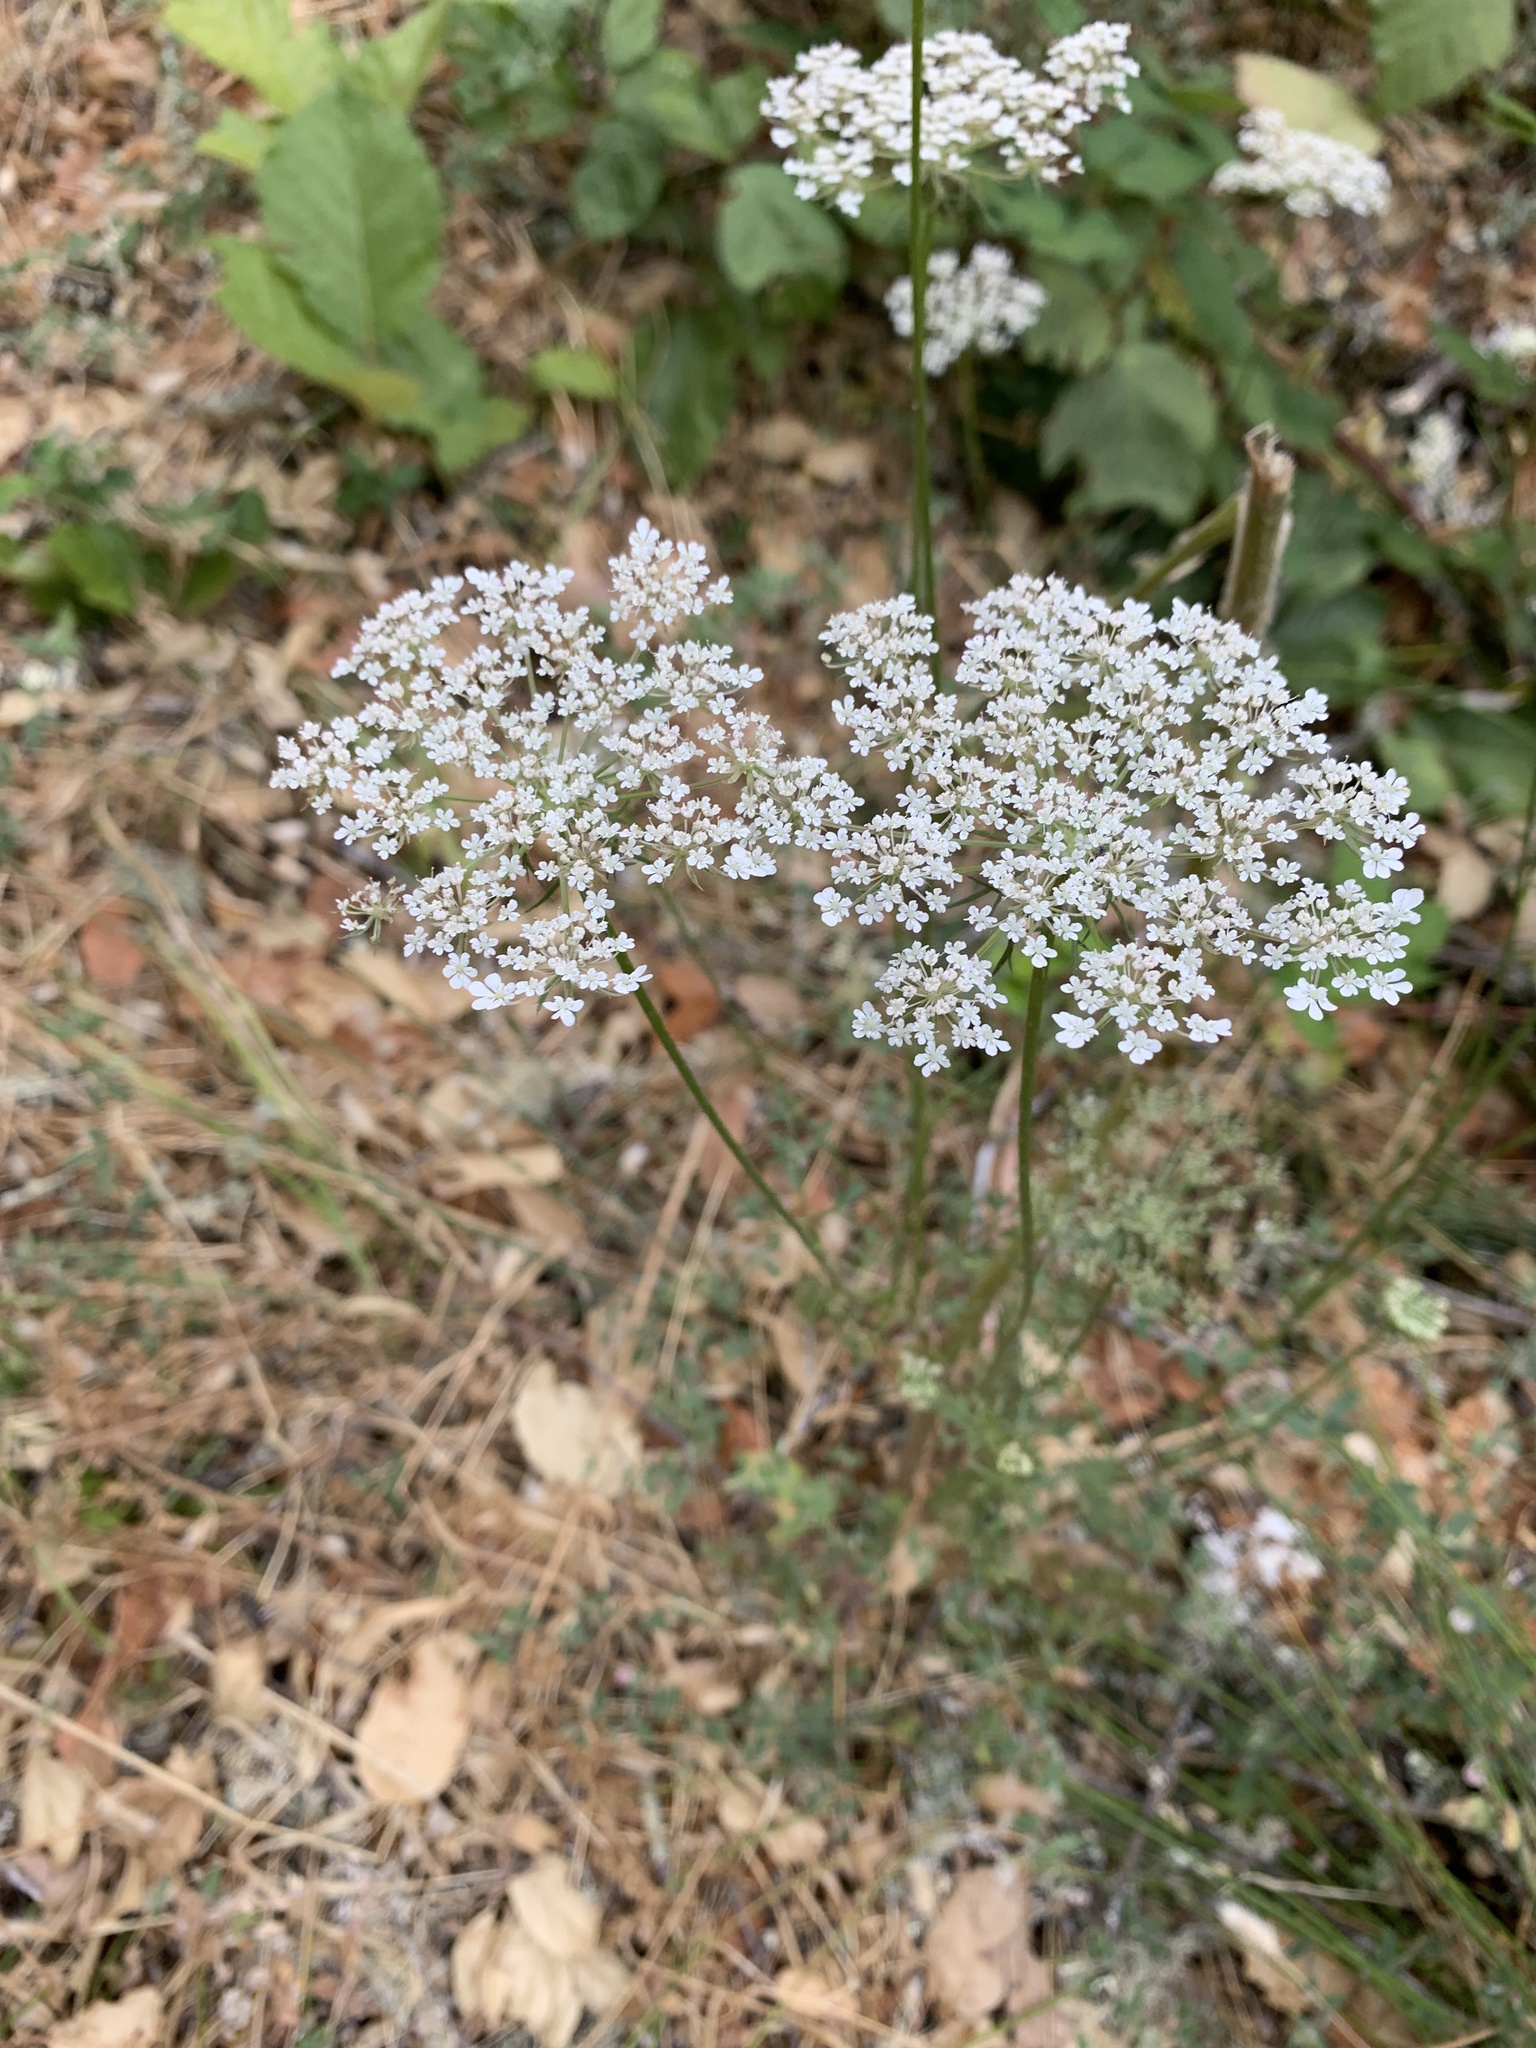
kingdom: Plantae
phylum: Tracheophyta
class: Magnoliopsida
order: Apiales
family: Apiaceae
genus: Daucus
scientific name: Daucus carota
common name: Wild carrot
